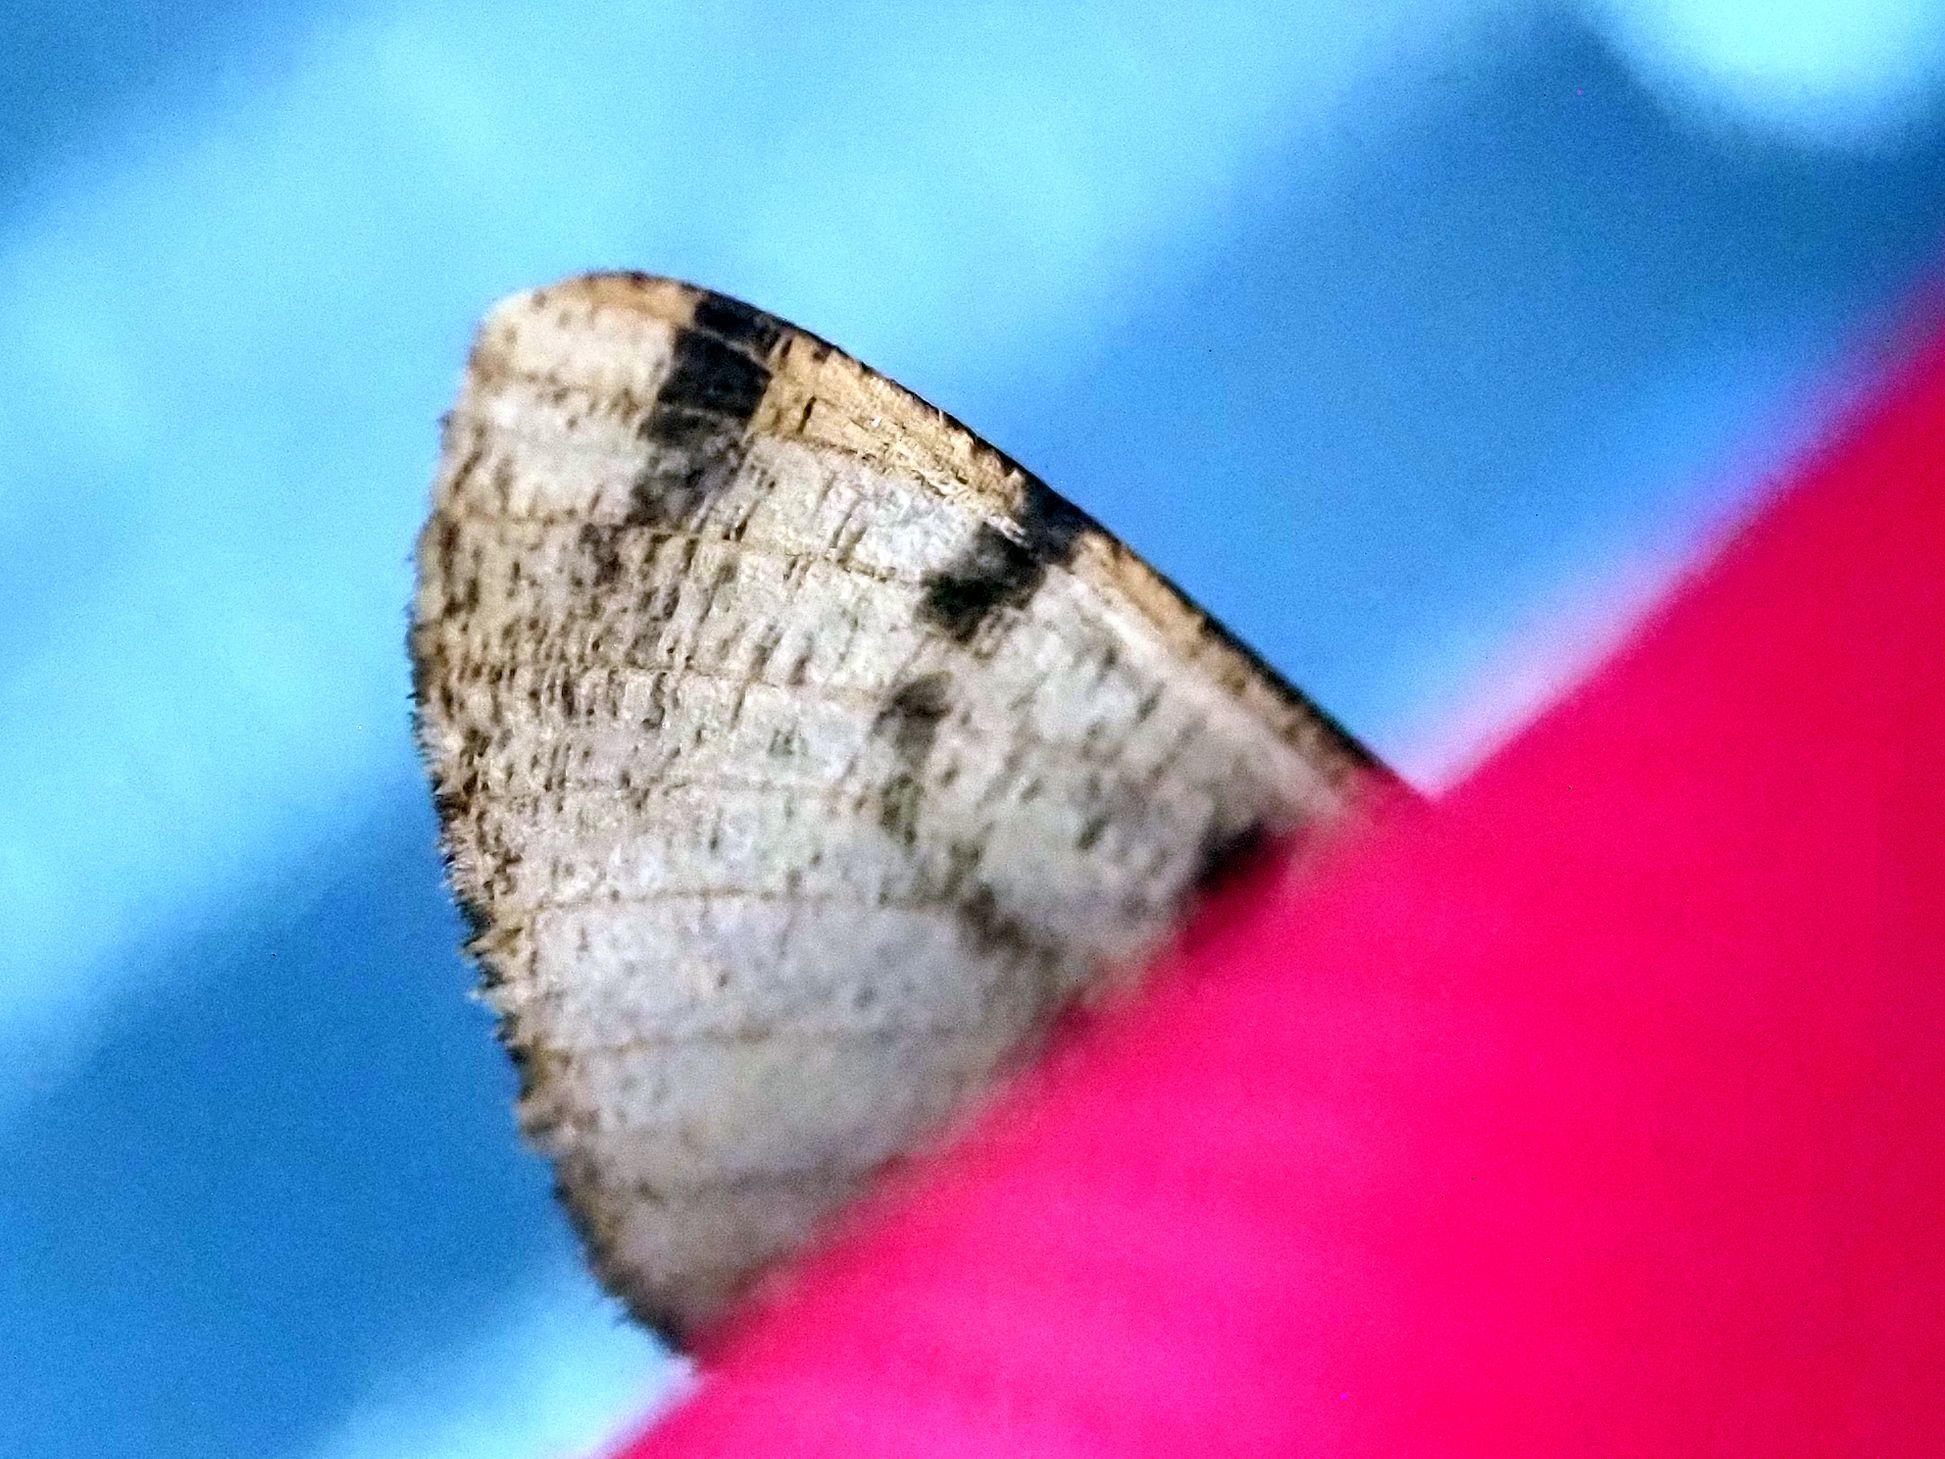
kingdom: Animalia
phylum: Arthropoda
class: Insecta
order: Lepidoptera
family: Geometridae
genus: Hypomecis
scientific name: Hypomecis roboraria
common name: Great oak beauty
